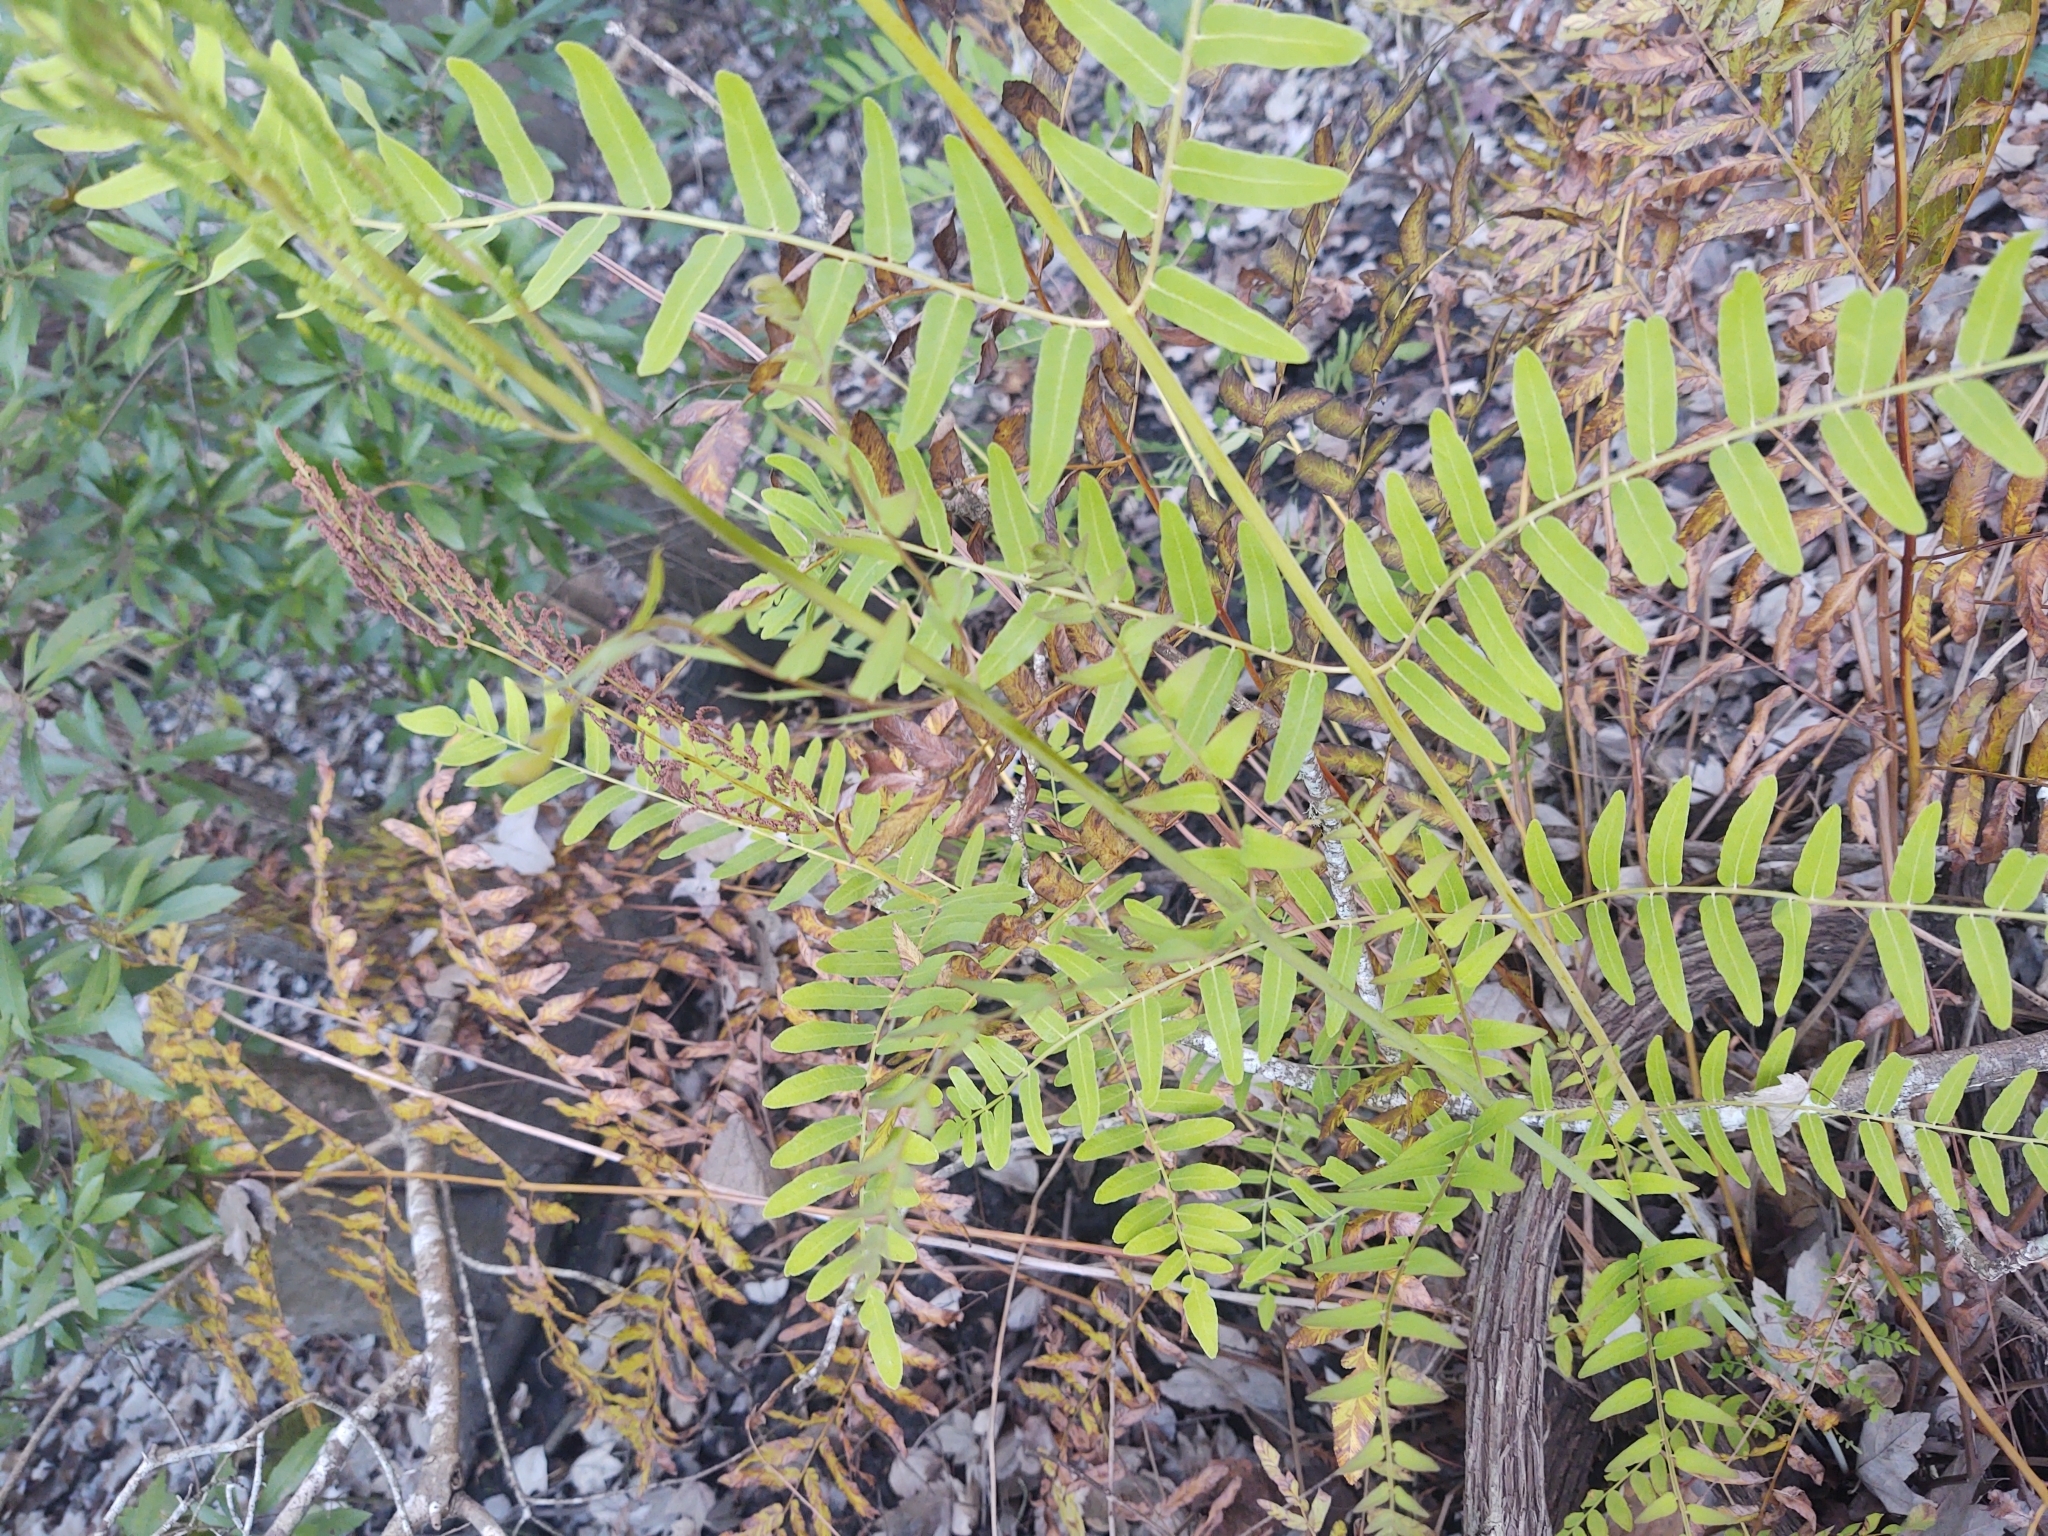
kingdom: Plantae
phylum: Tracheophyta
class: Polypodiopsida
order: Osmundales
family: Osmundaceae
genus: Osmunda
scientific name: Osmunda spectabilis
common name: American royal fern
